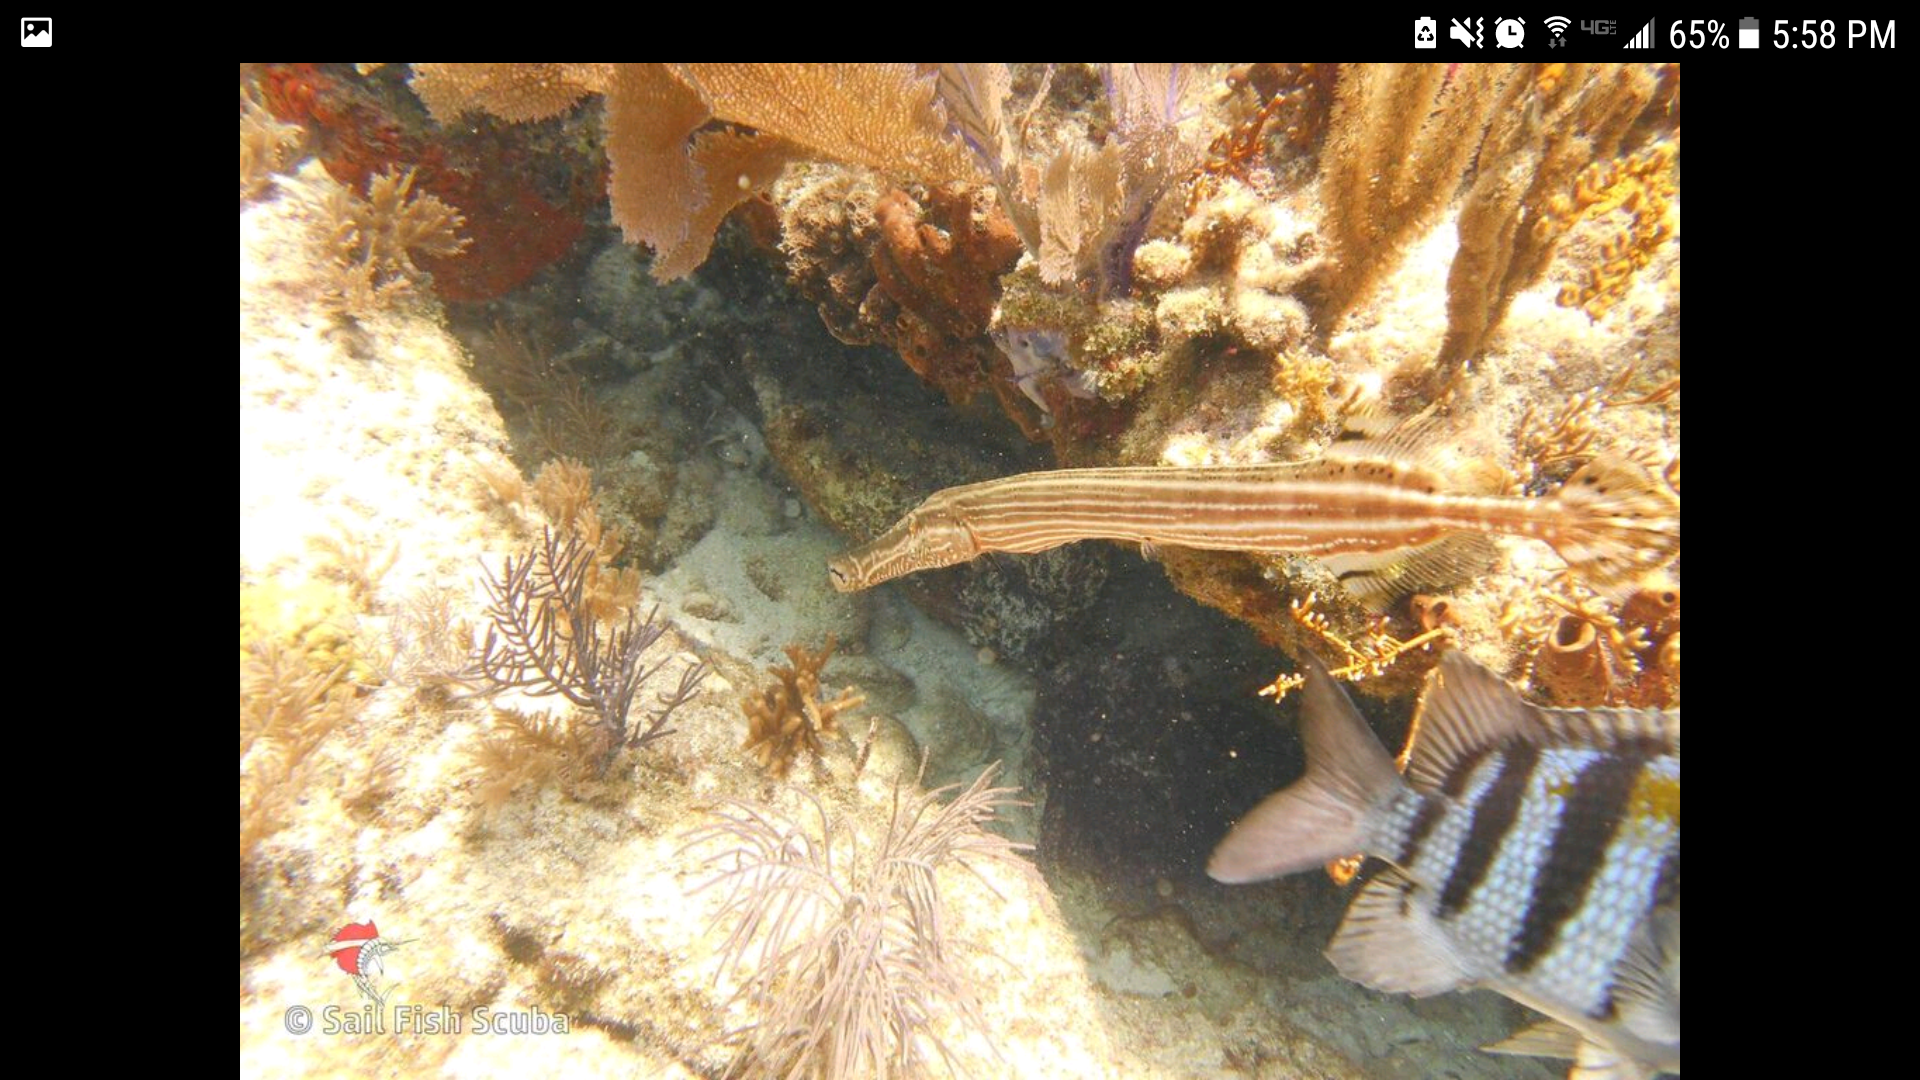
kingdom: Animalia
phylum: Chordata
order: Syngnathiformes
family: Aulostomidae
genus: Aulostomus
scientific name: Aulostomus maculatus
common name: West atlantic trumpetfish
